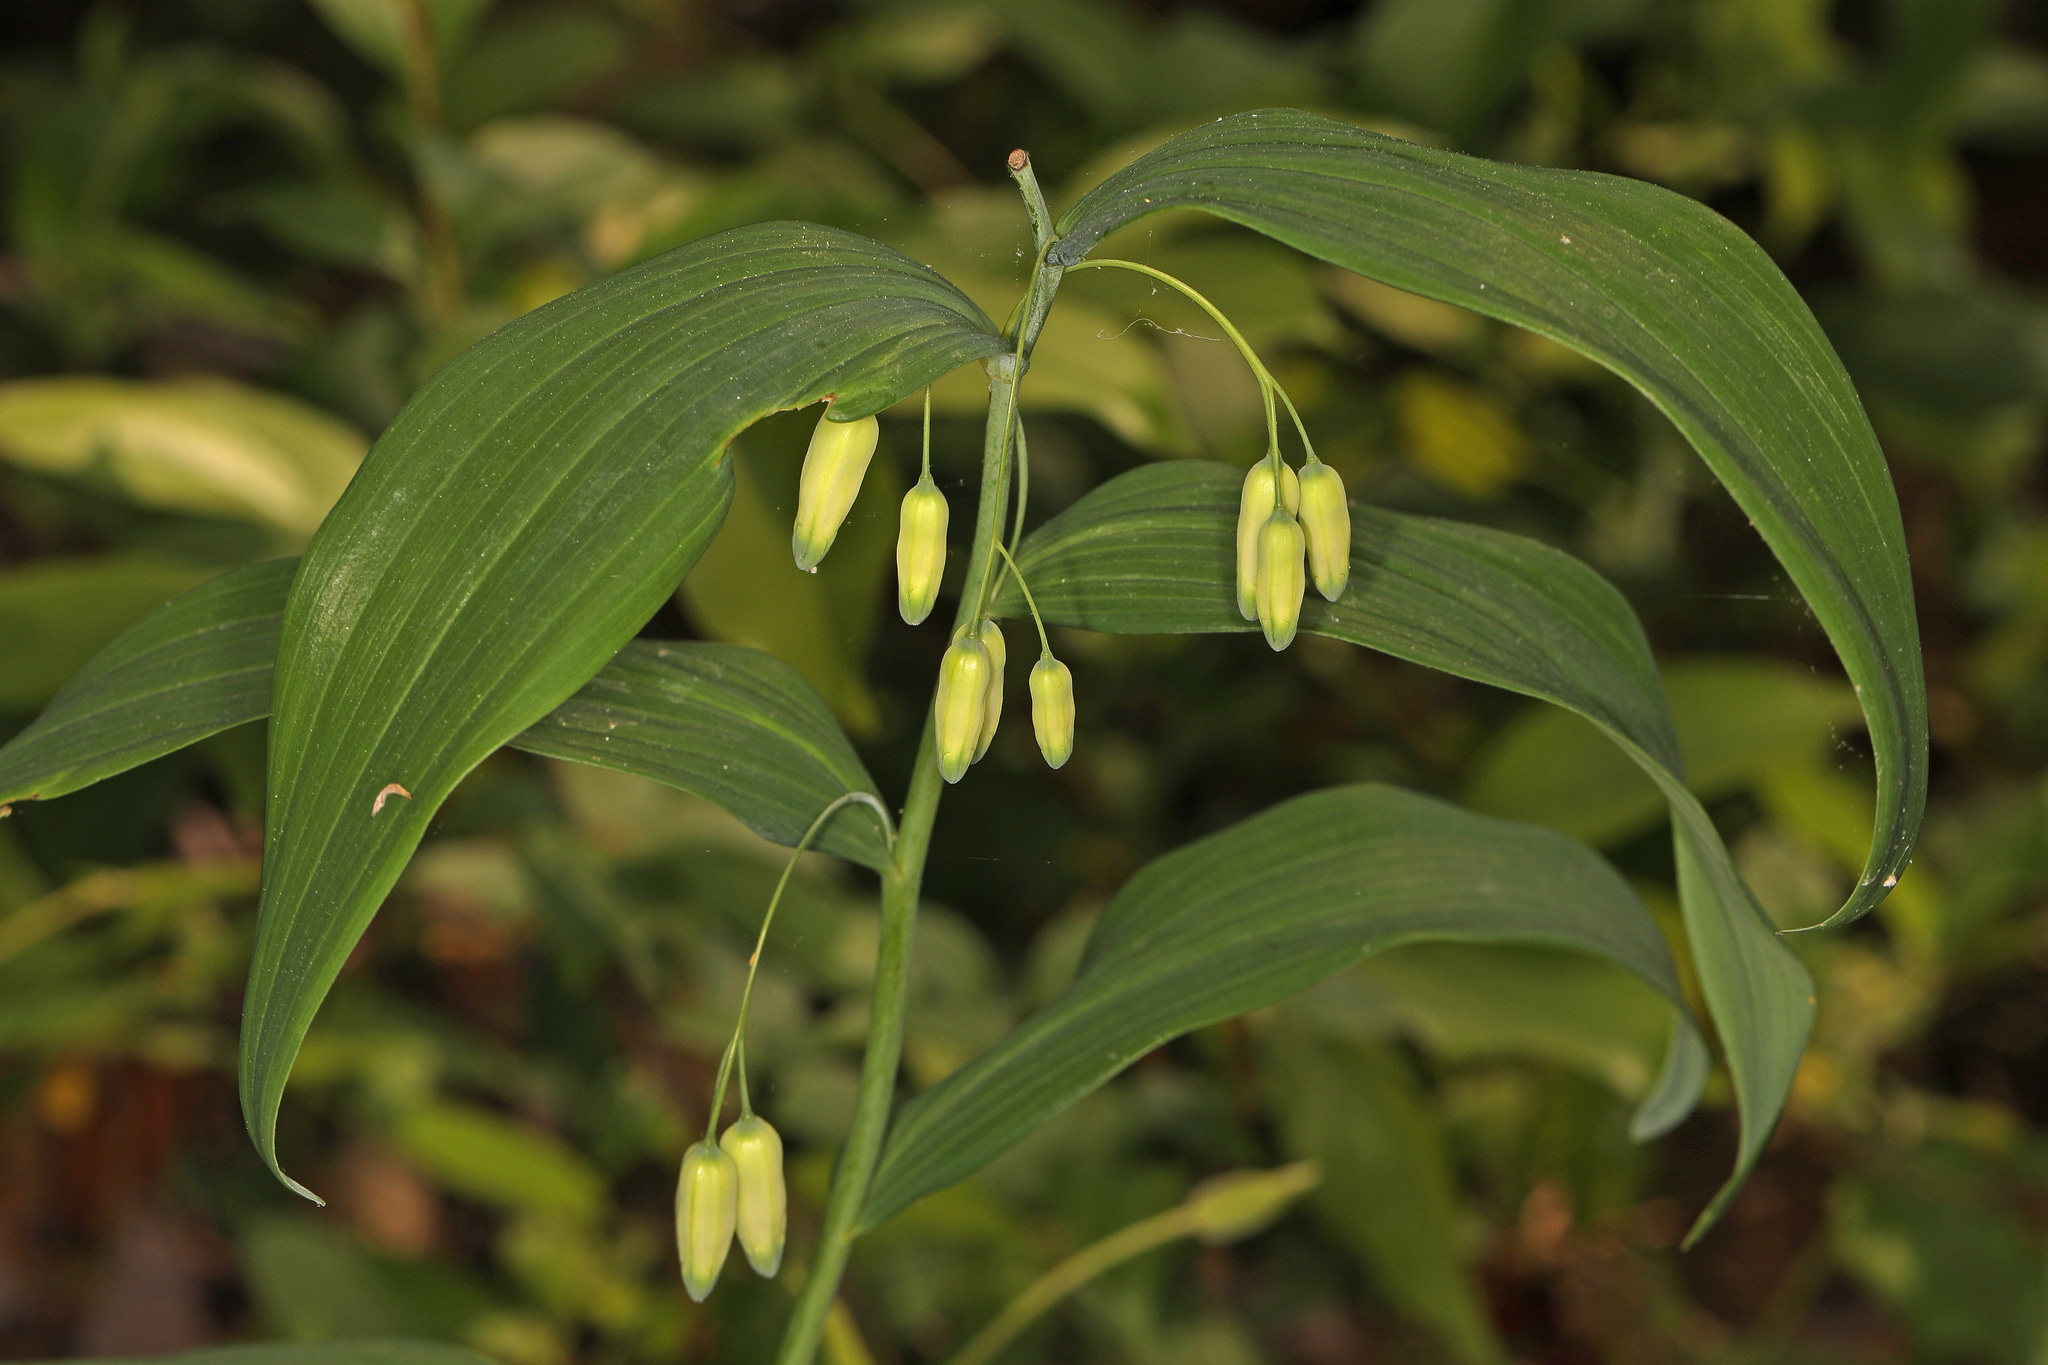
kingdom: Plantae
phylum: Tracheophyta
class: Liliopsida
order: Asparagales
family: Asparagaceae
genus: Polygonatum
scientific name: Polygonatum biflorum
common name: American solomon's-seal
